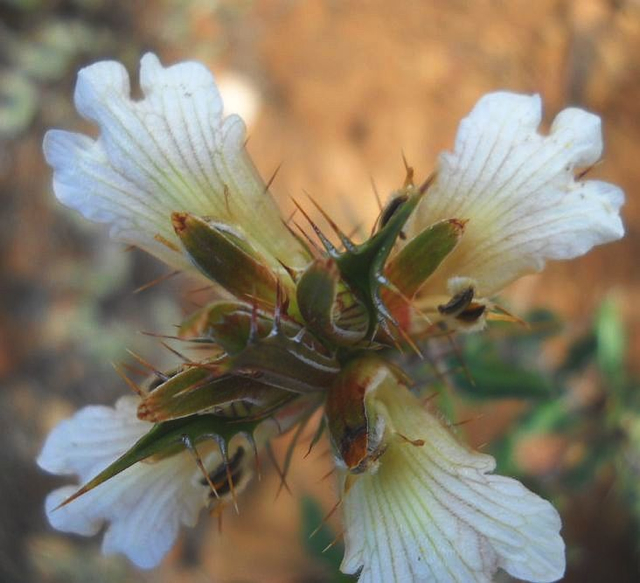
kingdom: Plantae
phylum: Tracheophyta
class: Magnoliopsida
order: Lamiales
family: Acanthaceae
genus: Blepharis
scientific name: Blepharis capensis
